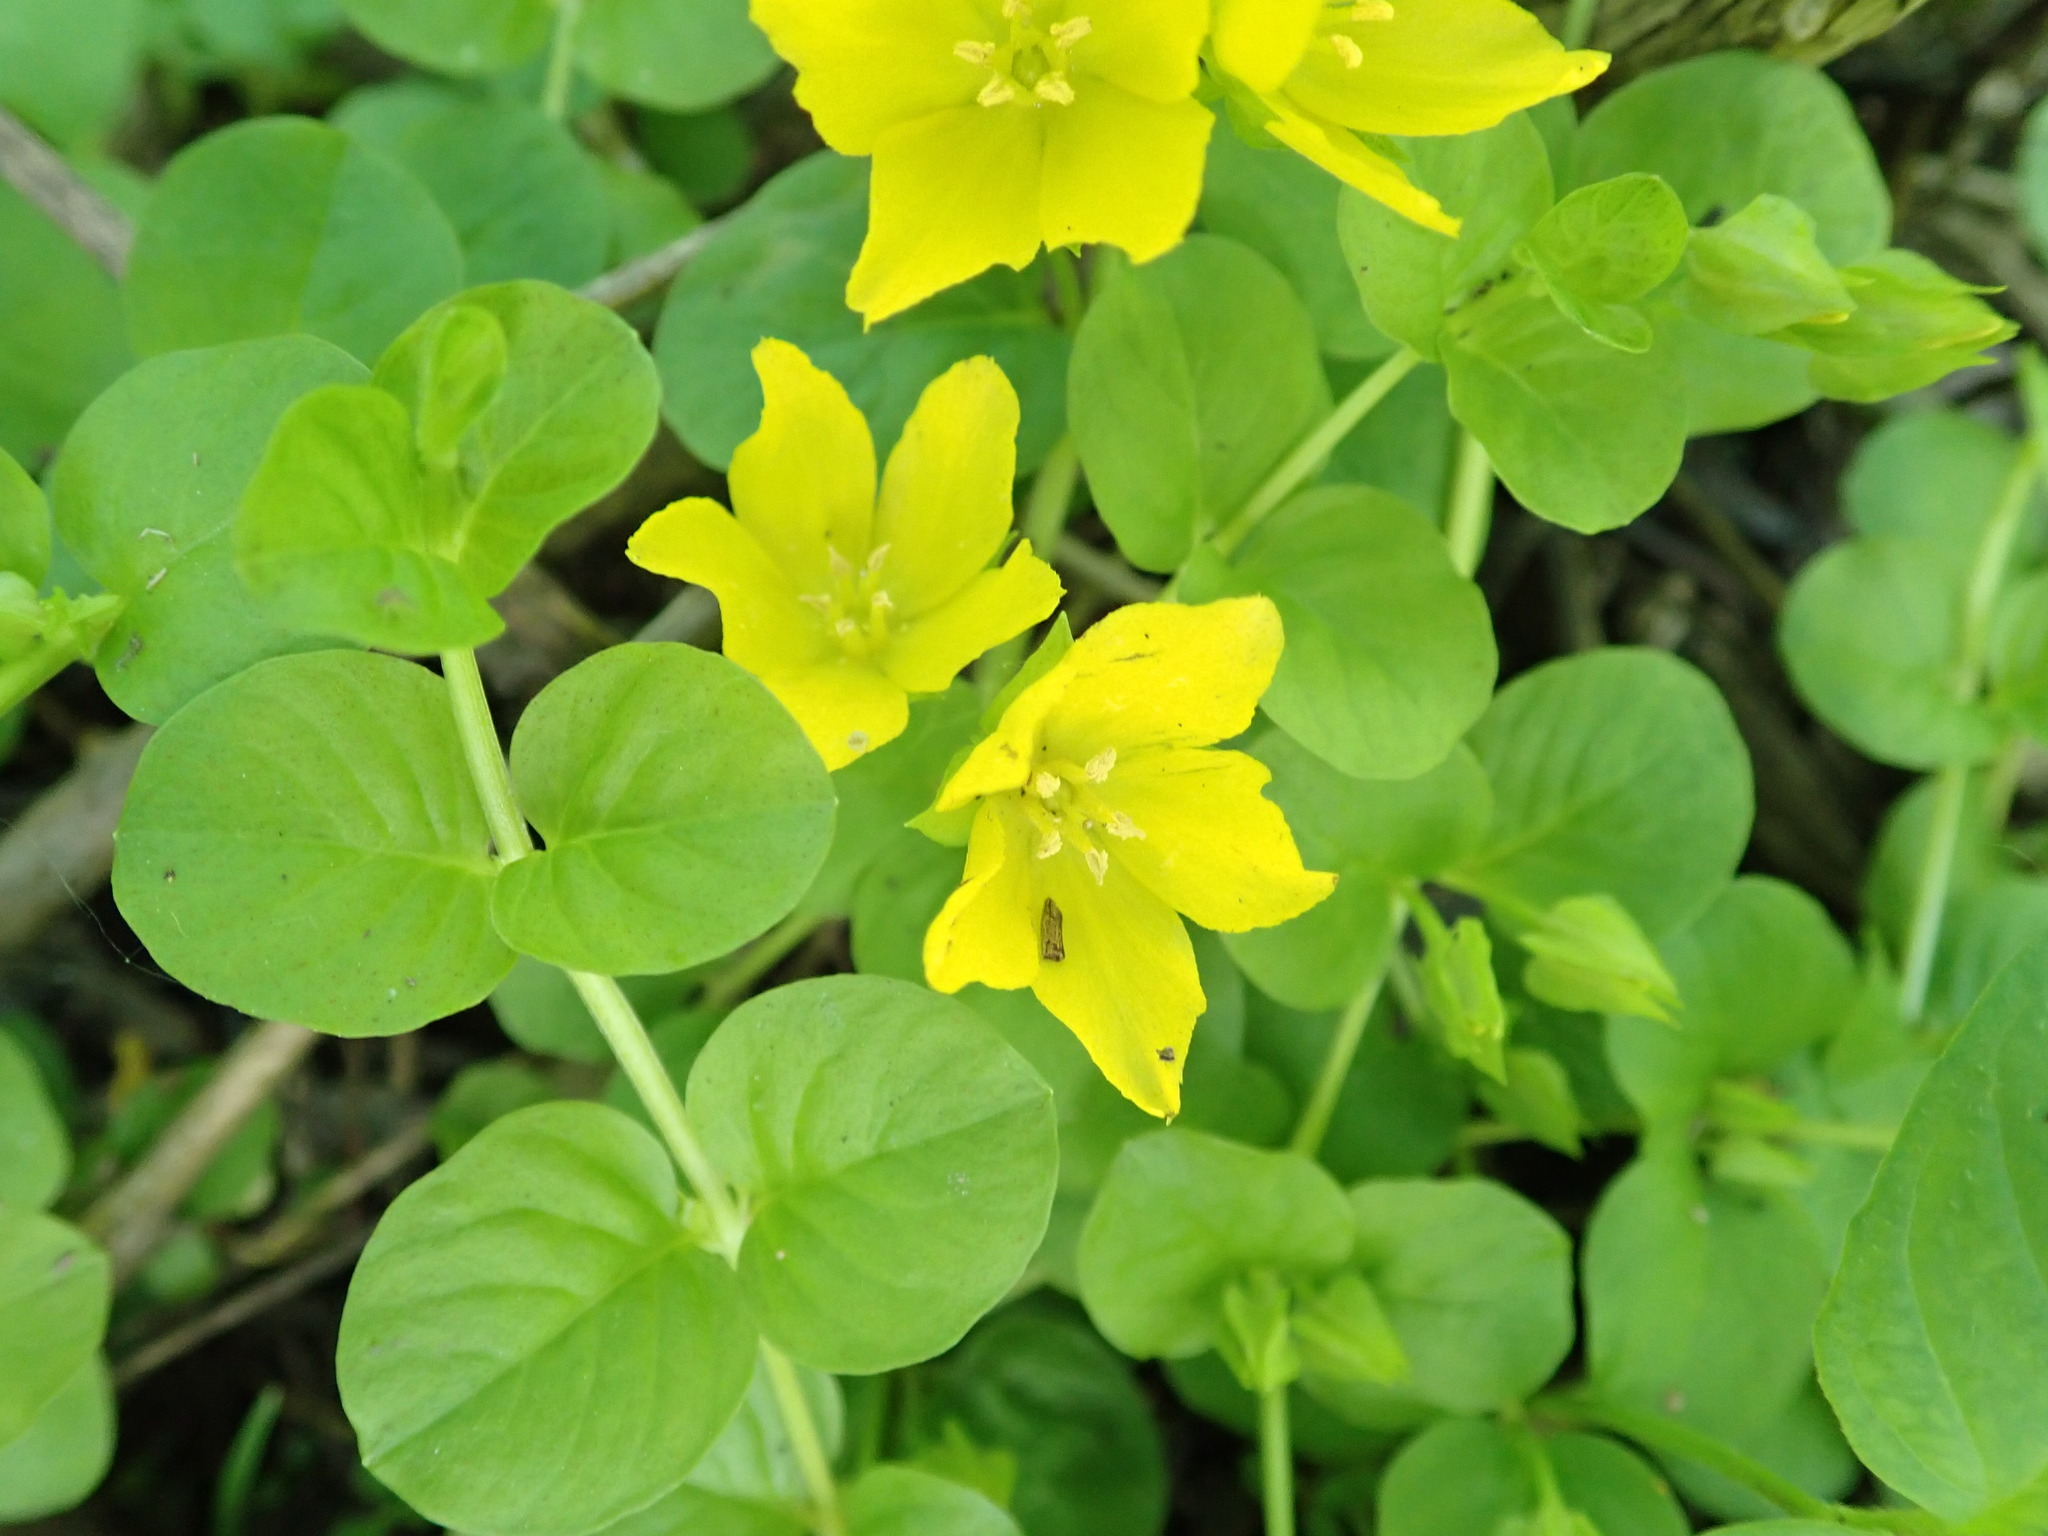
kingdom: Plantae
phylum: Tracheophyta
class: Magnoliopsida
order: Ericales
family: Primulaceae
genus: Lysimachia
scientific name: Lysimachia nummularia
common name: Moneywort
